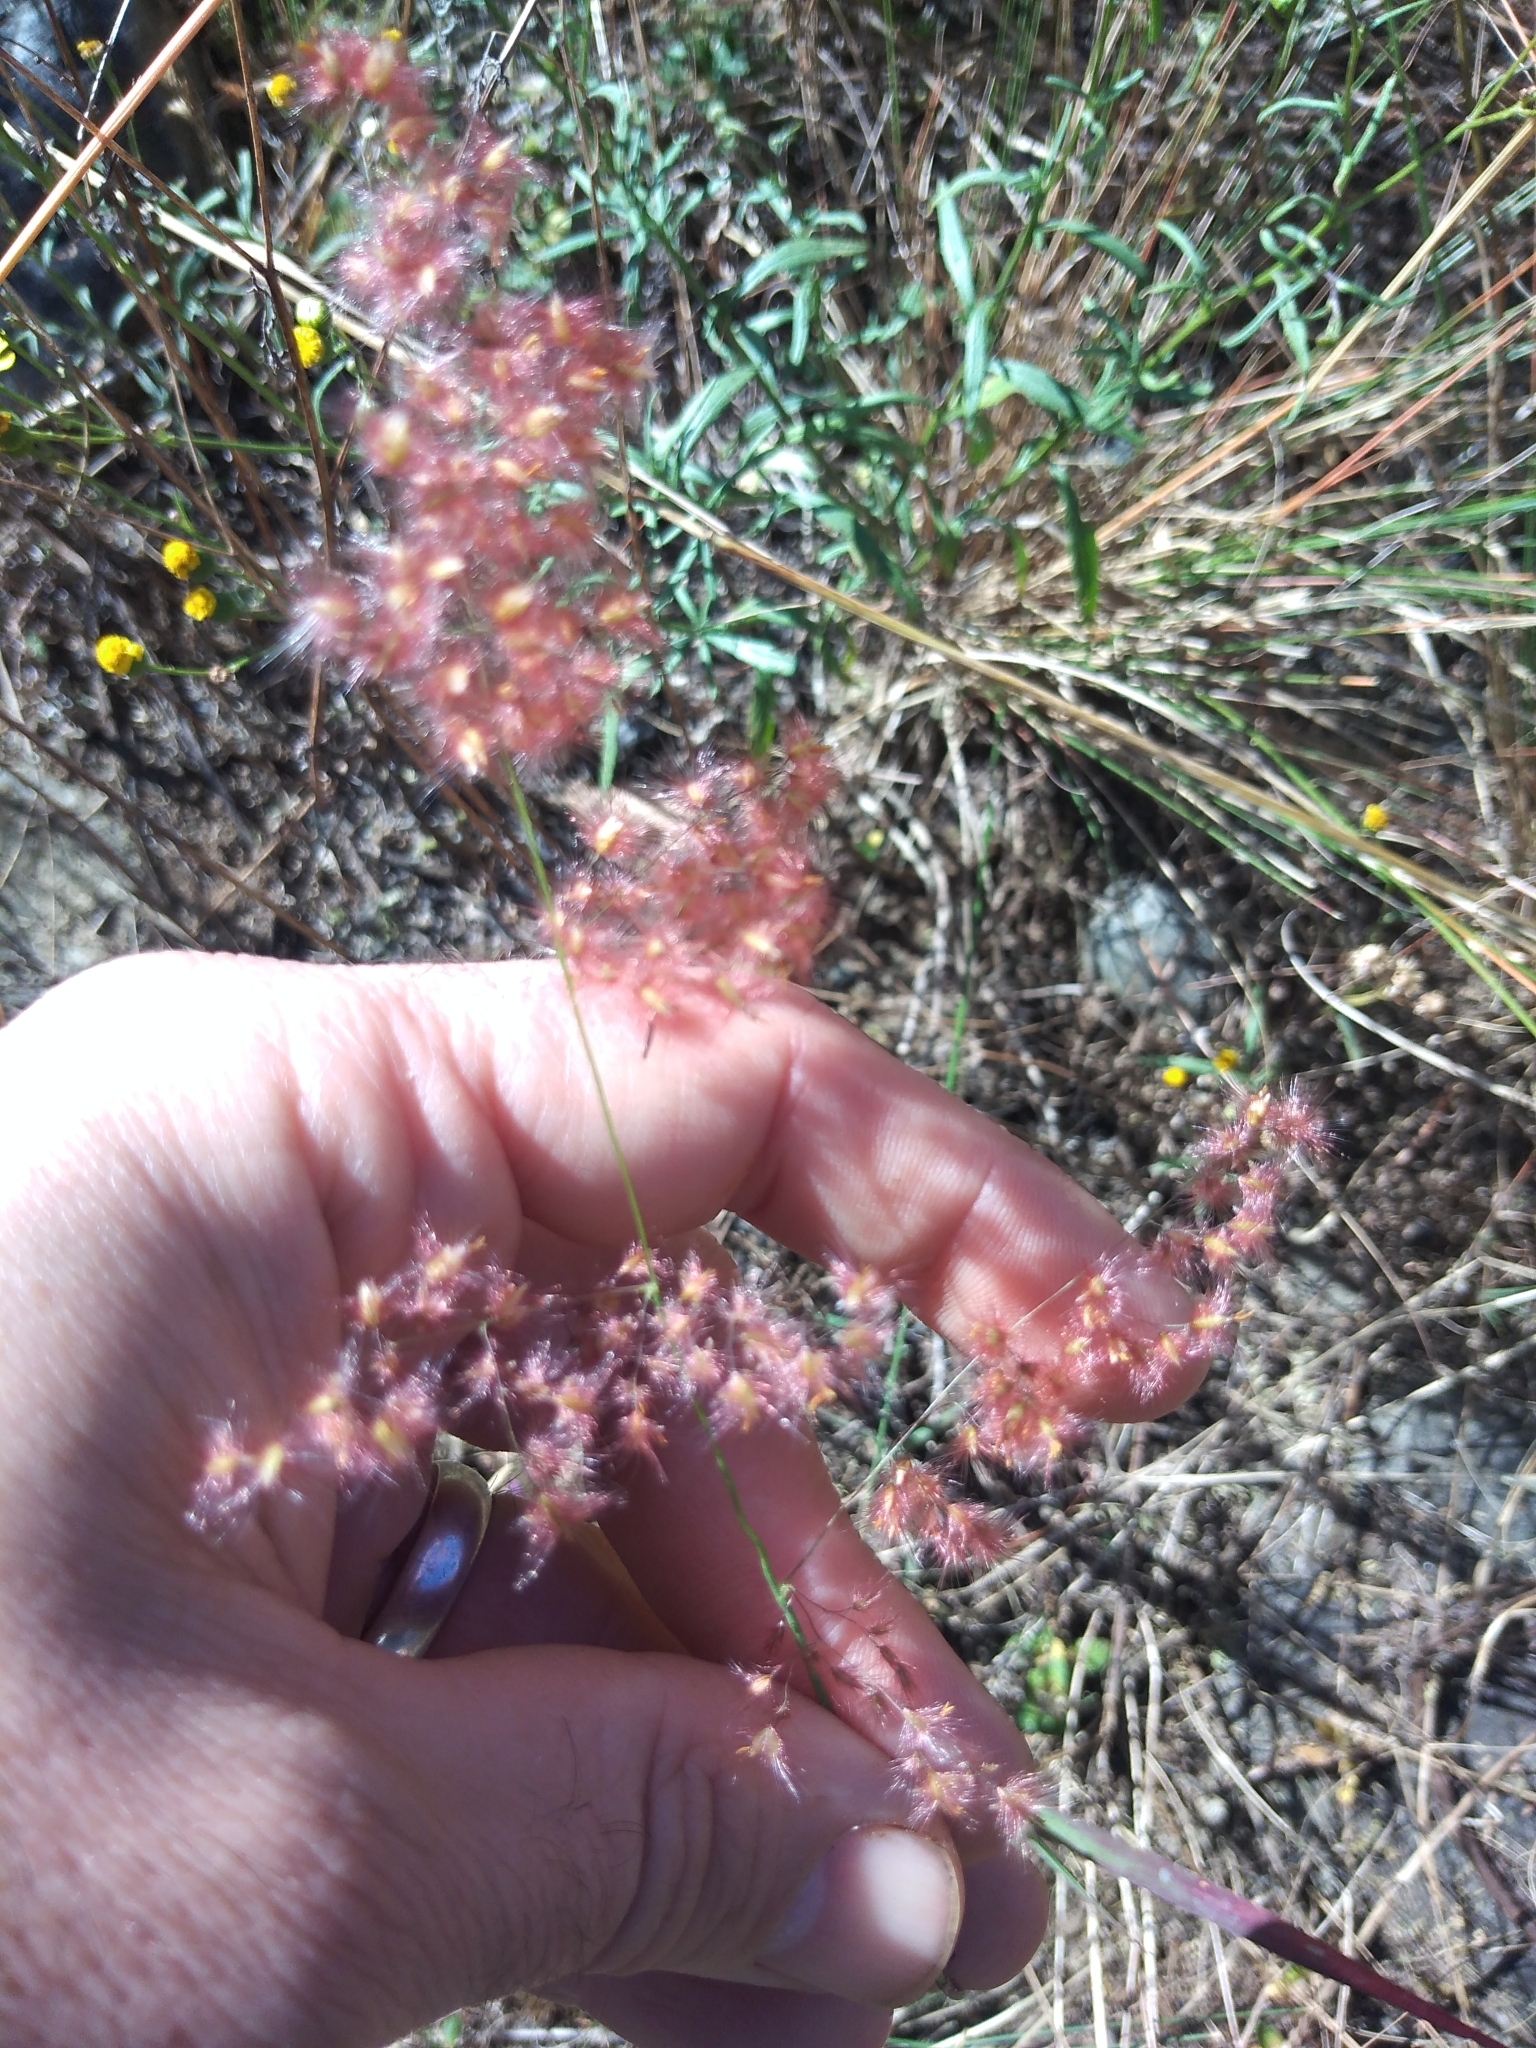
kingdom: Plantae
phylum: Tracheophyta
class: Liliopsida
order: Poales
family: Poaceae
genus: Melinis
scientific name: Melinis repens
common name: Rose natal grass
